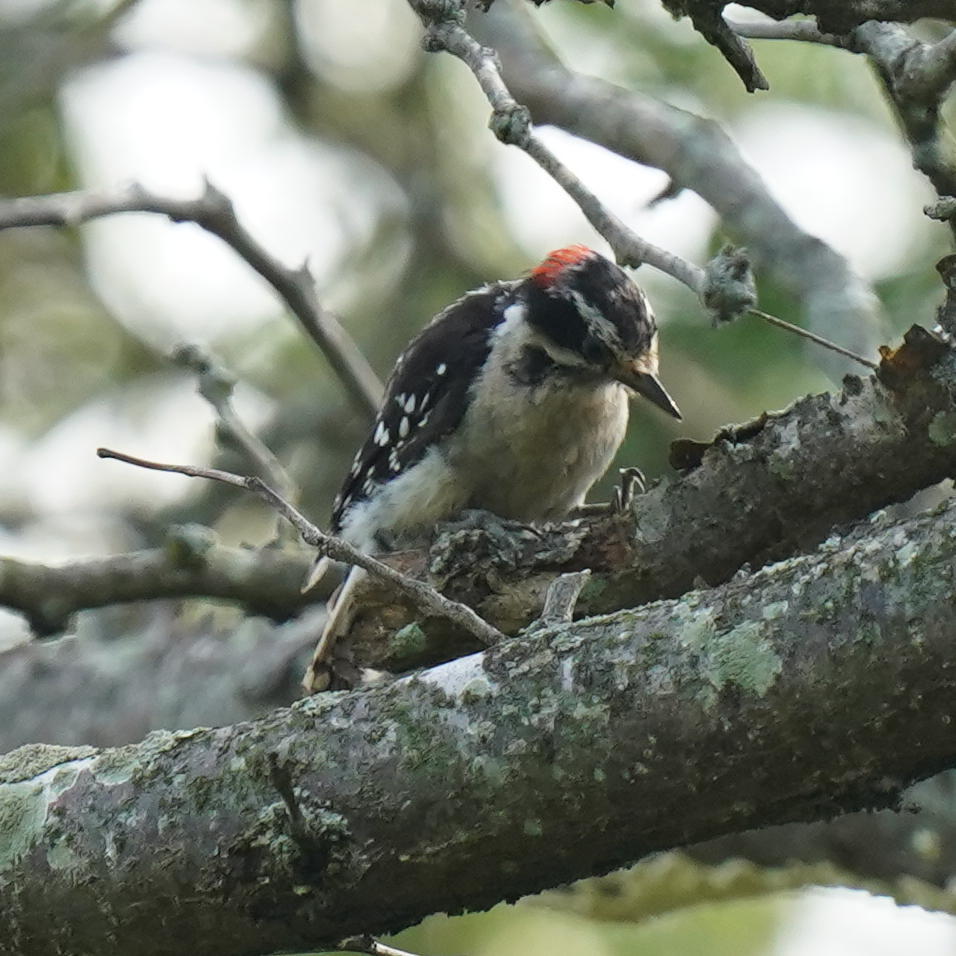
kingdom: Animalia
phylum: Chordata
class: Aves
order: Piciformes
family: Picidae
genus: Dryobates
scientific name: Dryobates pubescens
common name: Downy woodpecker
